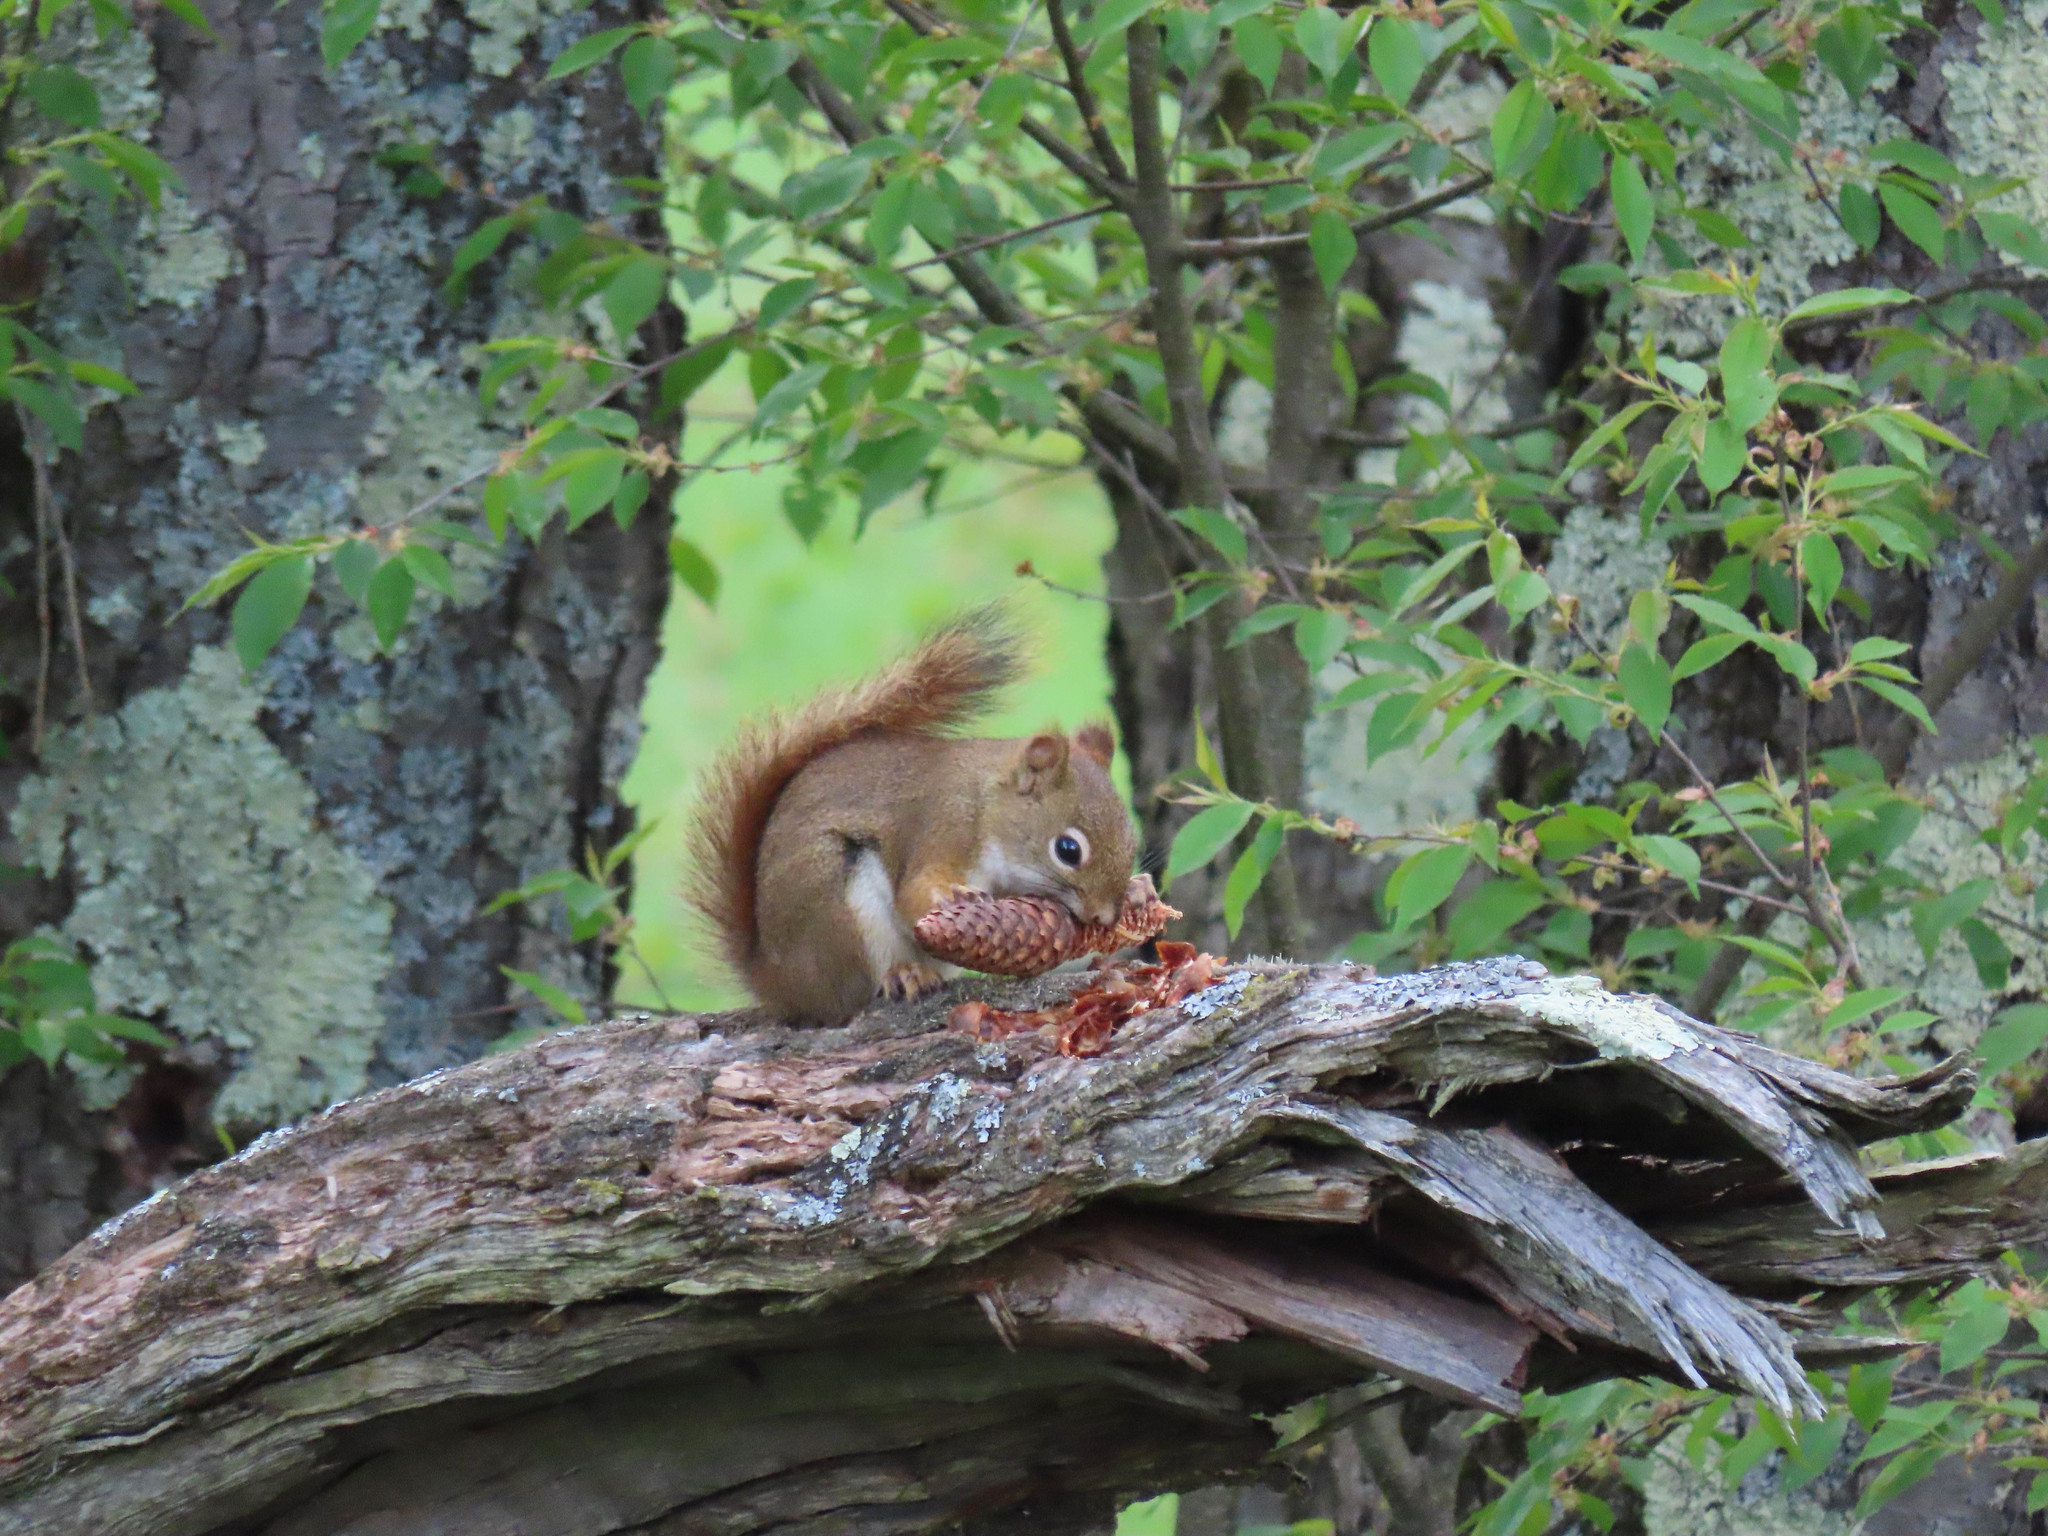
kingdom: Animalia
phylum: Chordata
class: Mammalia
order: Rodentia
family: Sciuridae
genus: Tamiasciurus
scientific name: Tamiasciurus hudsonicus
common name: Red squirrel
